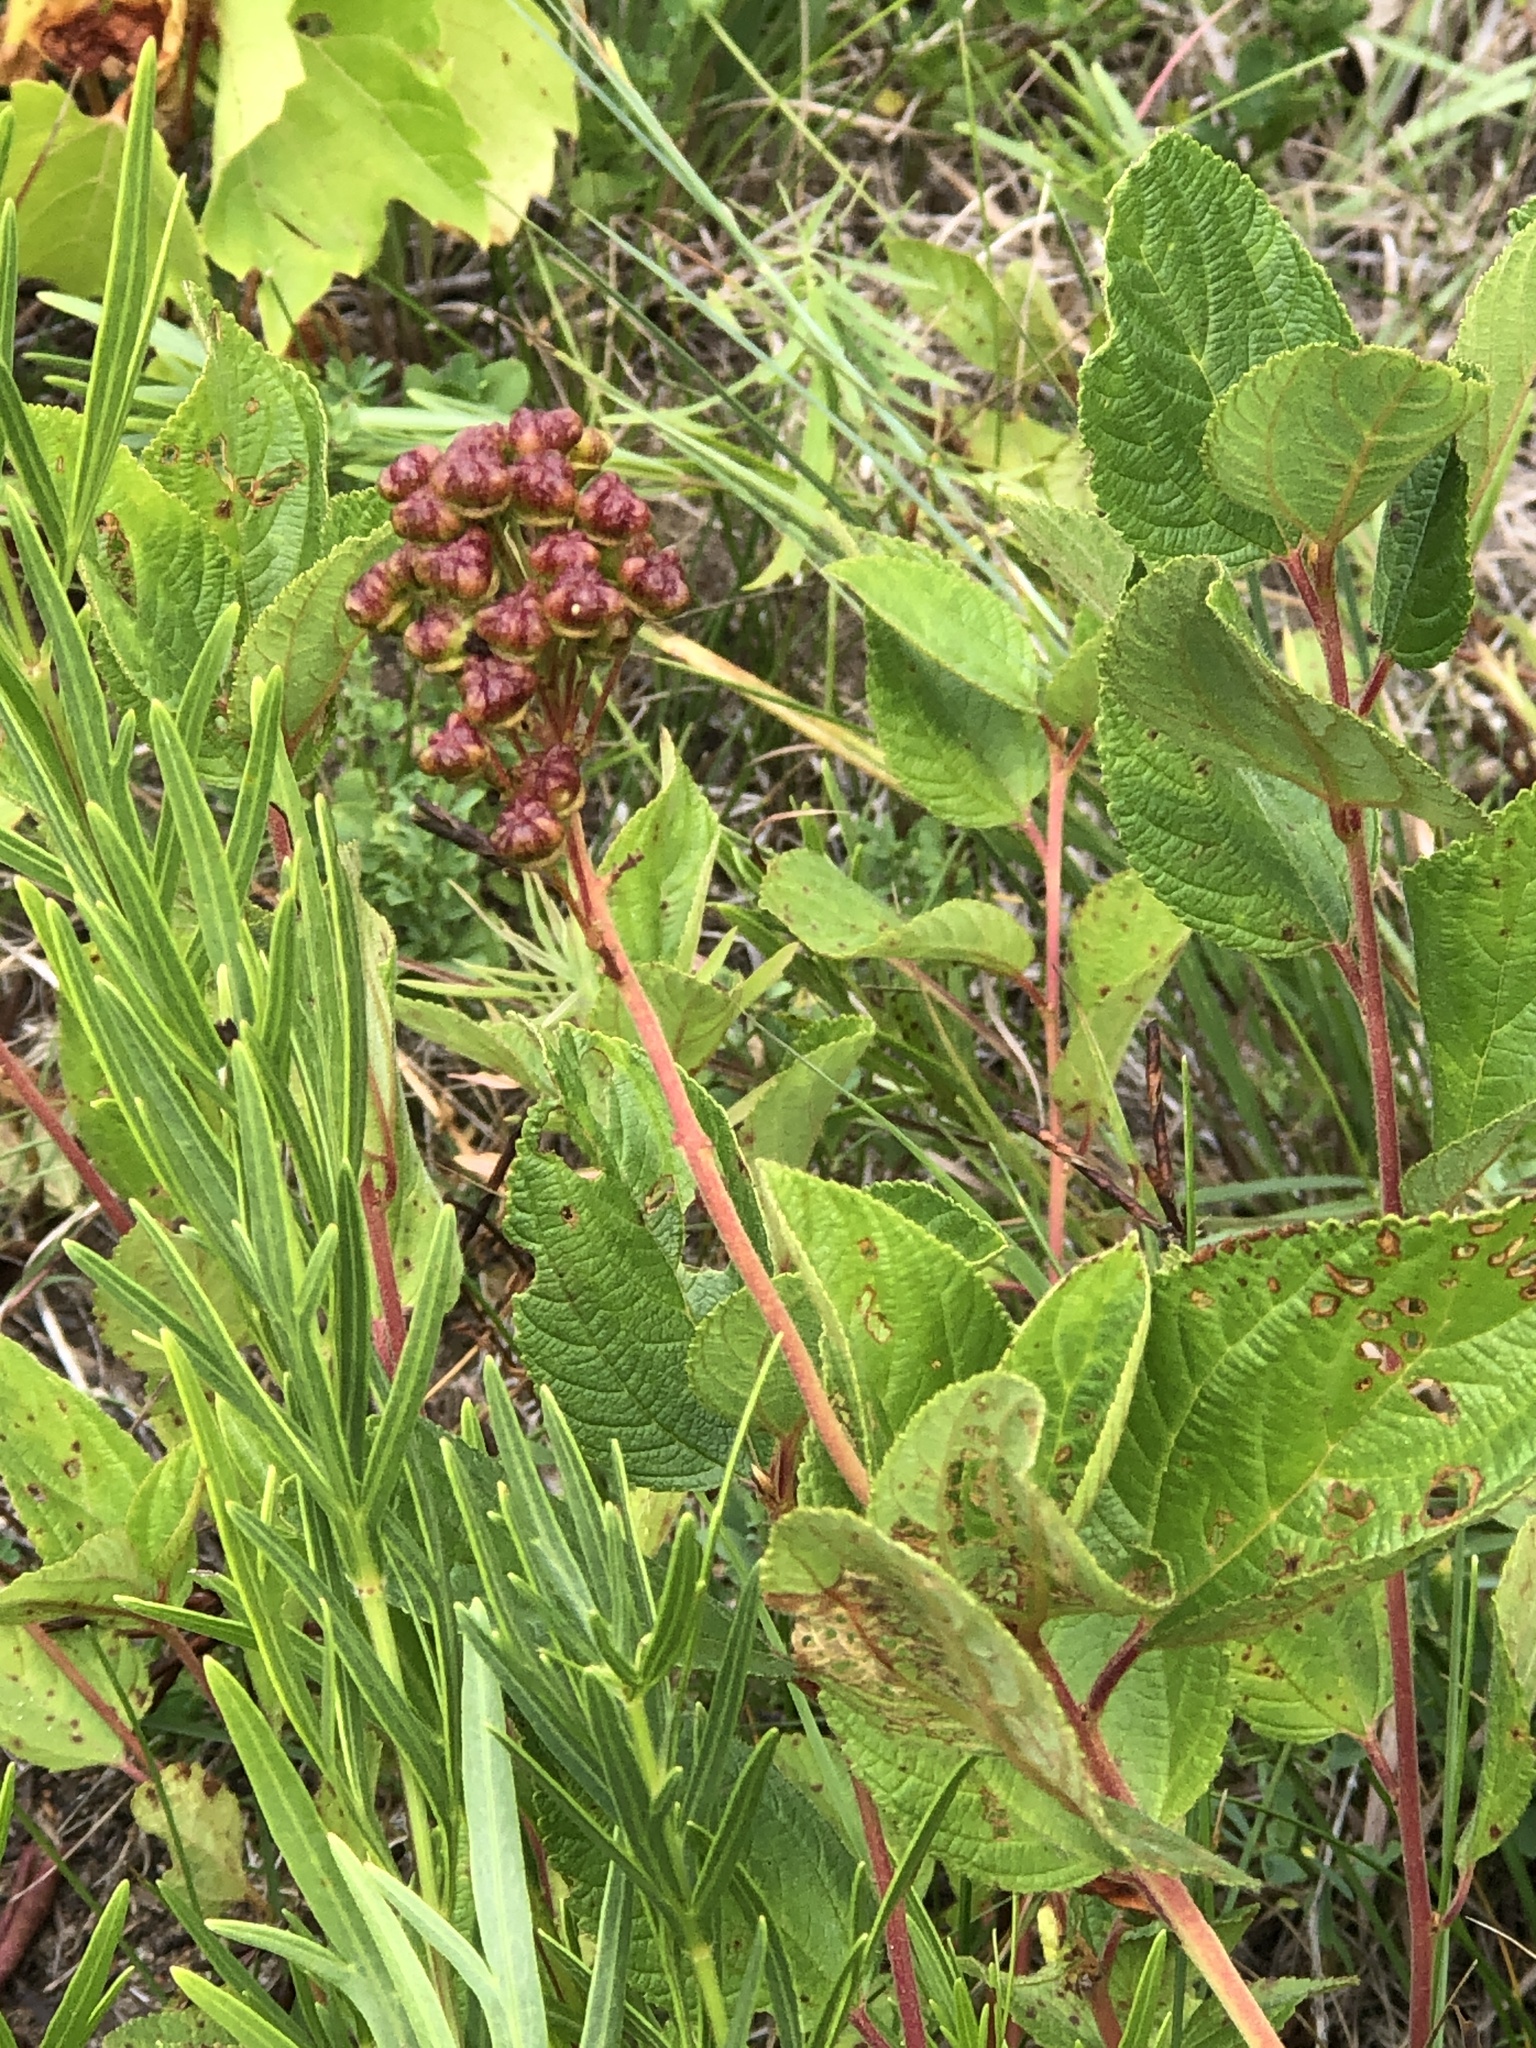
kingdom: Plantae
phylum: Tracheophyta
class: Magnoliopsida
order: Rosales
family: Rhamnaceae
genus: Ceanothus
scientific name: Ceanothus americanus
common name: Redroot
